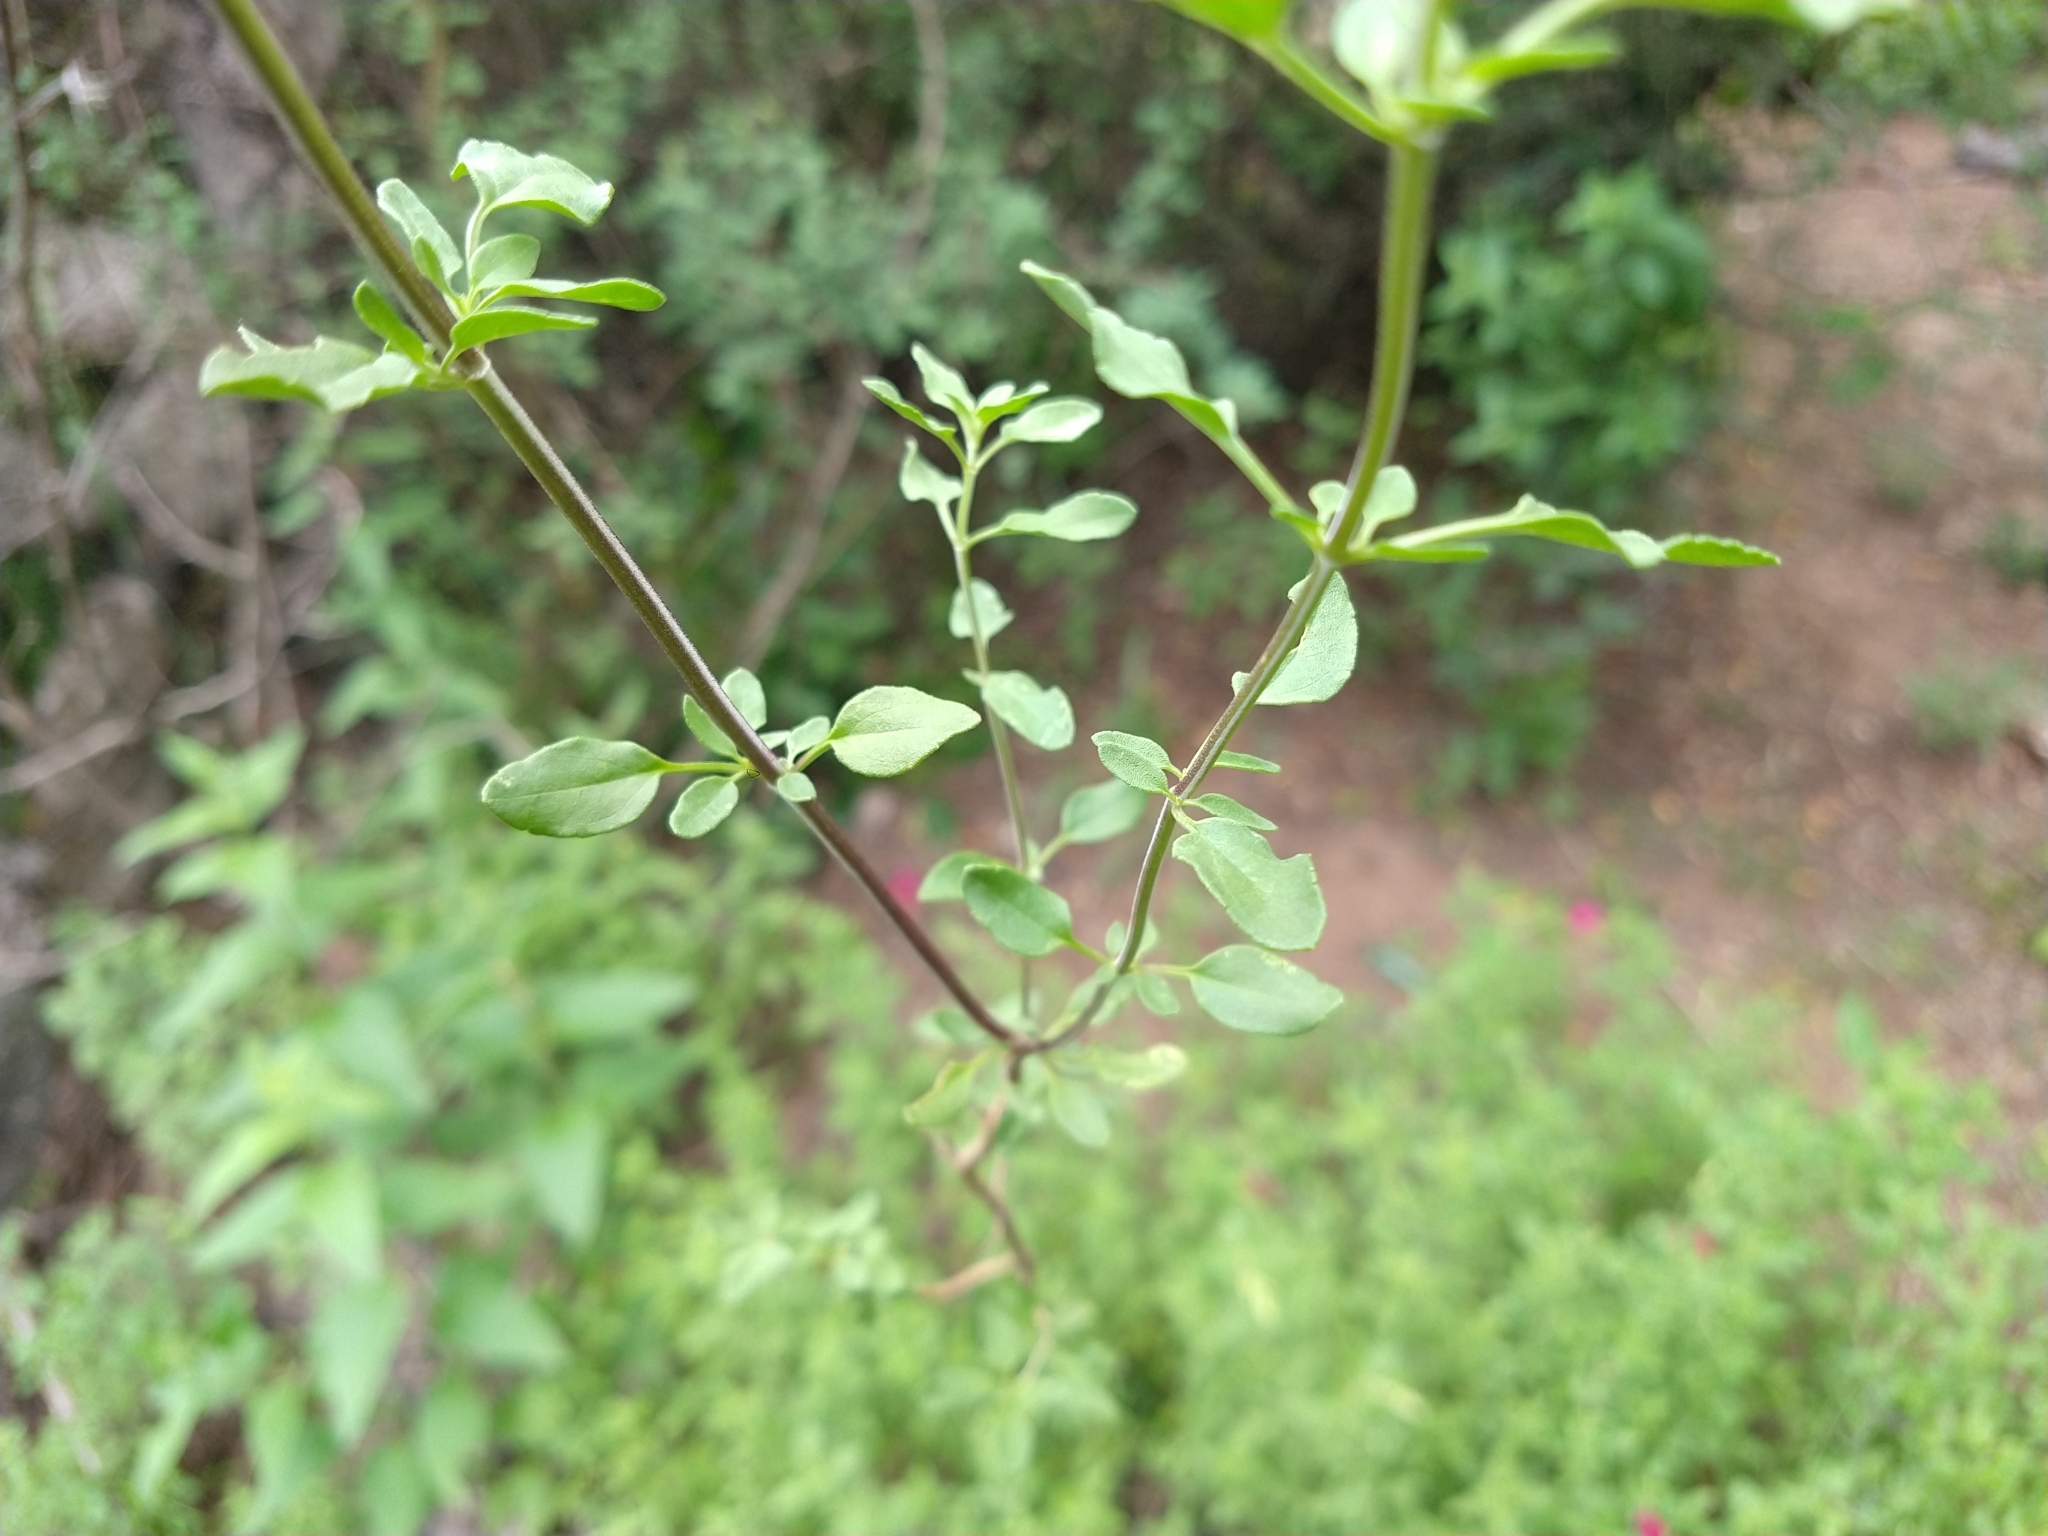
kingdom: Plantae
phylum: Tracheophyta
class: Magnoliopsida
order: Lamiales
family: Lamiaceae
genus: Salvia
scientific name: Salvia macellaria
